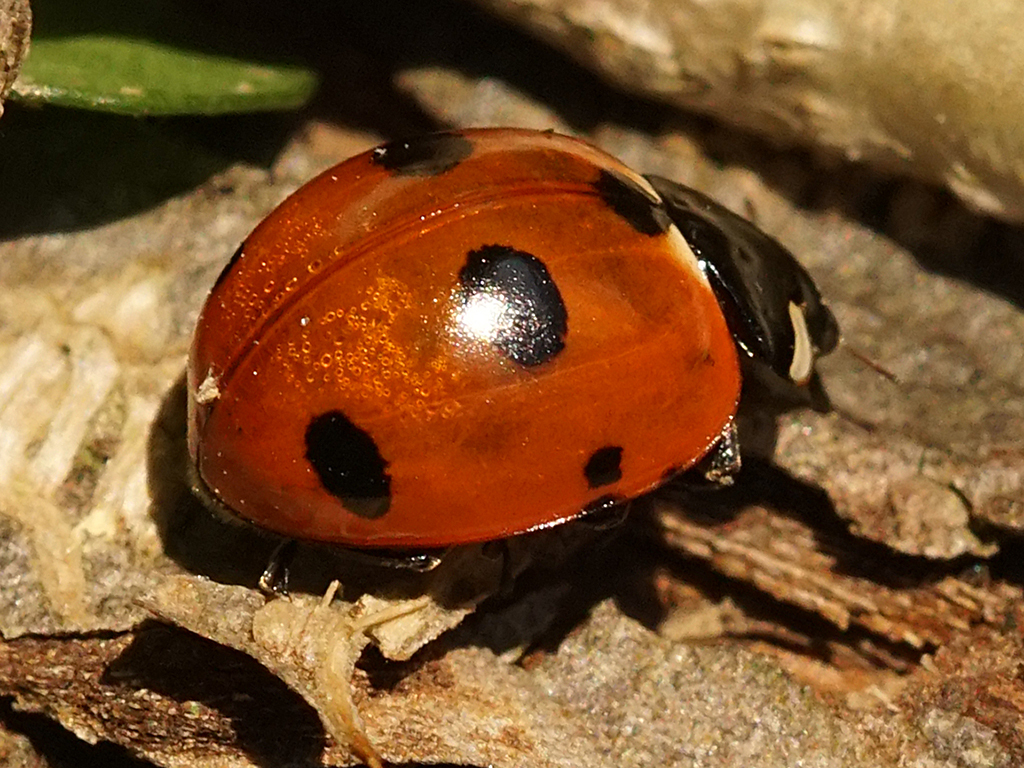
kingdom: Animalia
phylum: Arthropoda
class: Insecta
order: Coleoptera
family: Coccinellidae
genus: Coccinella
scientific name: Coccinella magnifica
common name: Scarce 7-spot ladybird
